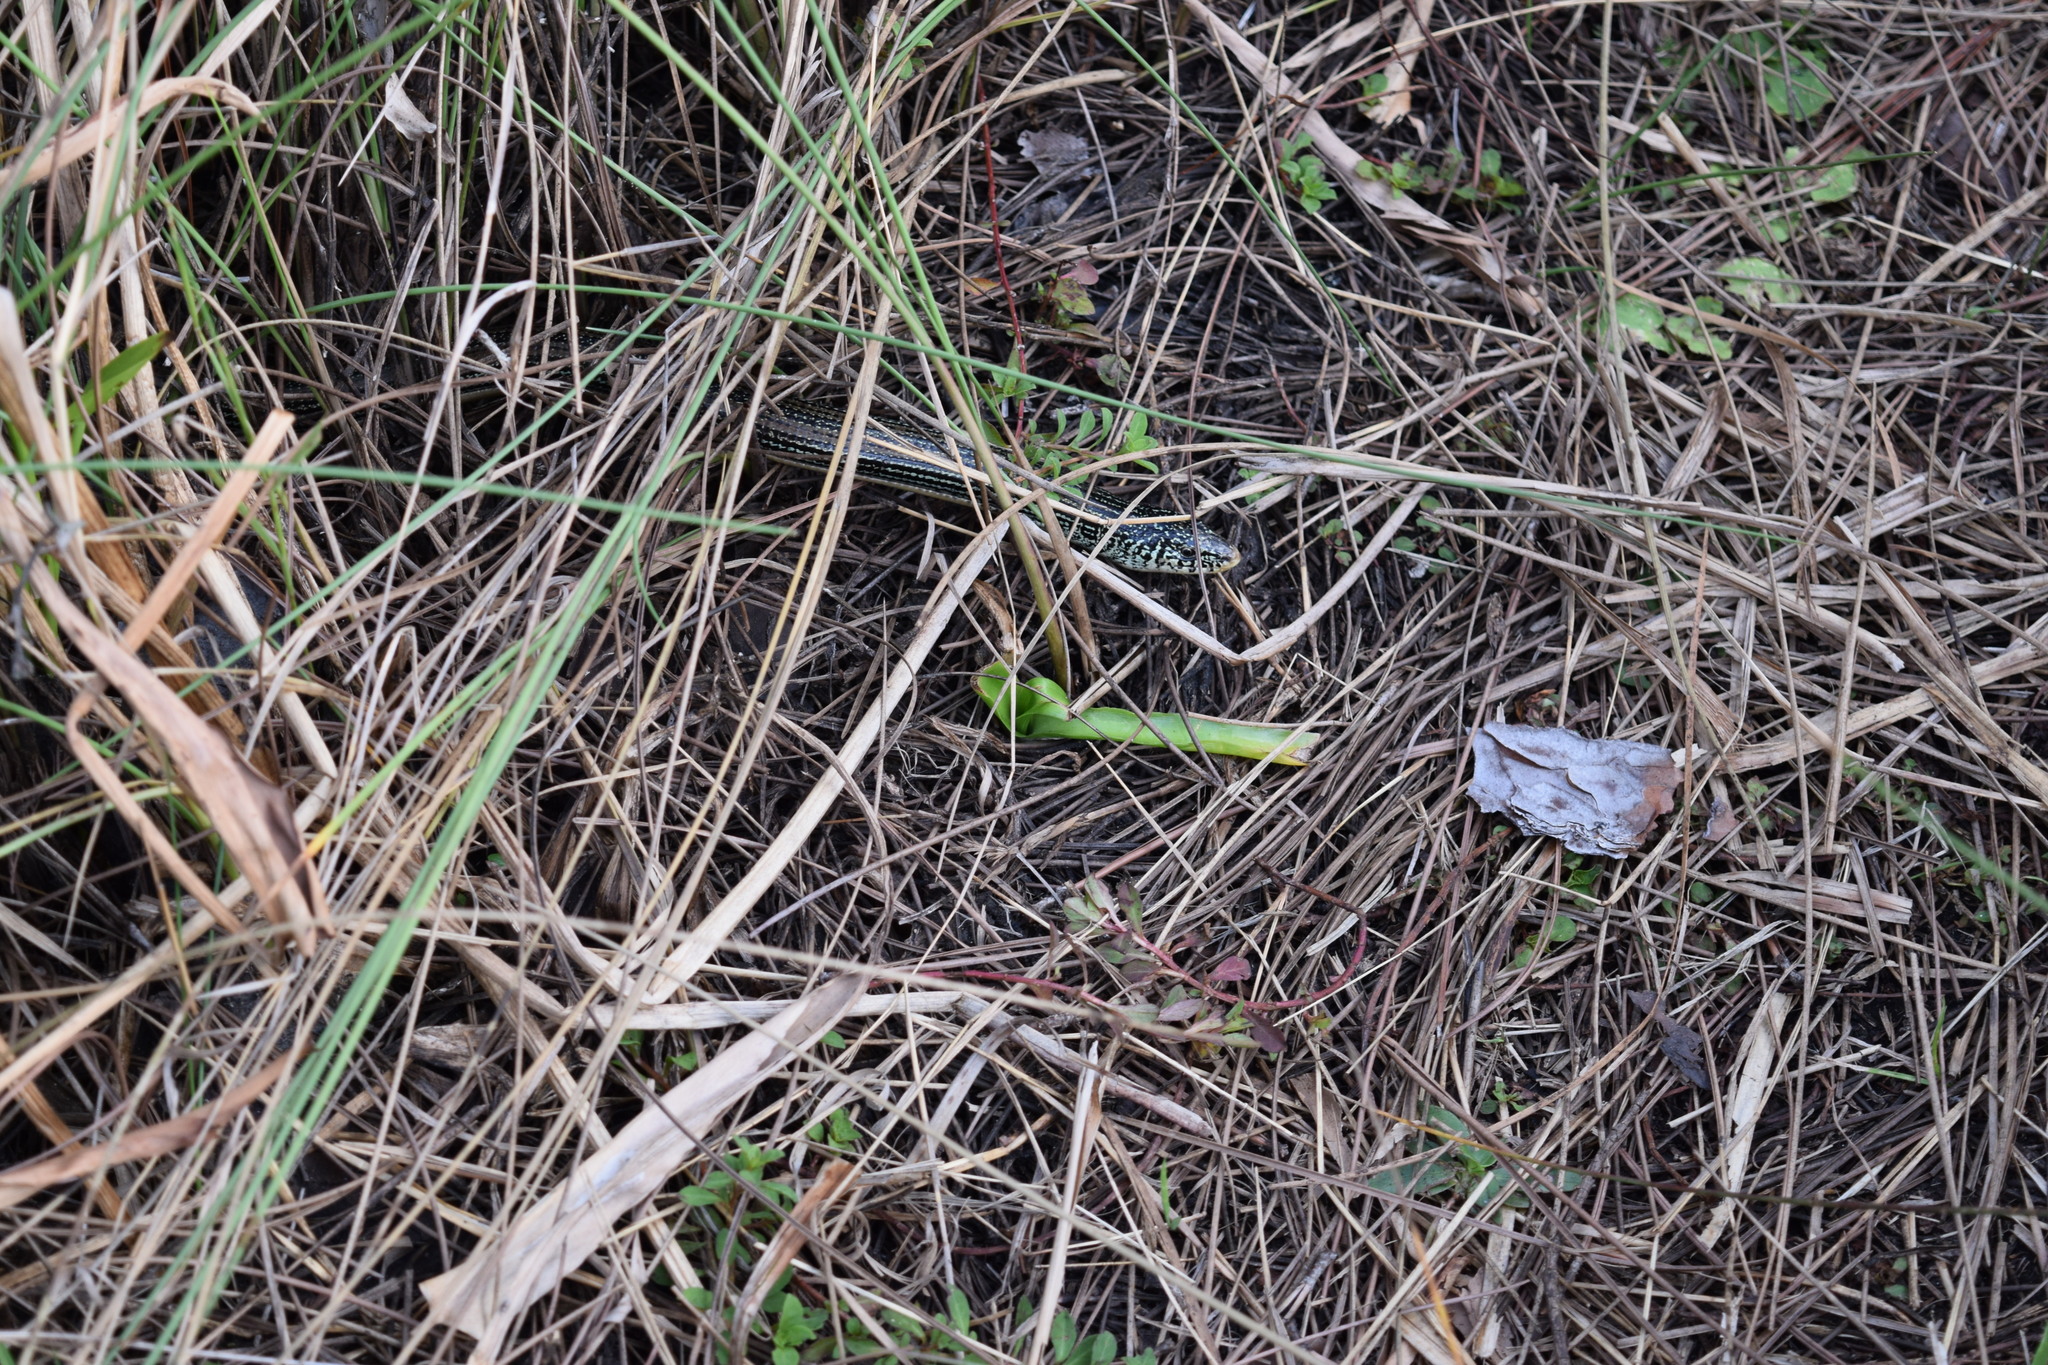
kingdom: Animalia
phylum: Chordata
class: Squamata
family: Anguidae
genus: Ophisaurus
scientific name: Ophisaurus ventralis
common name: Eastern glass lizard
